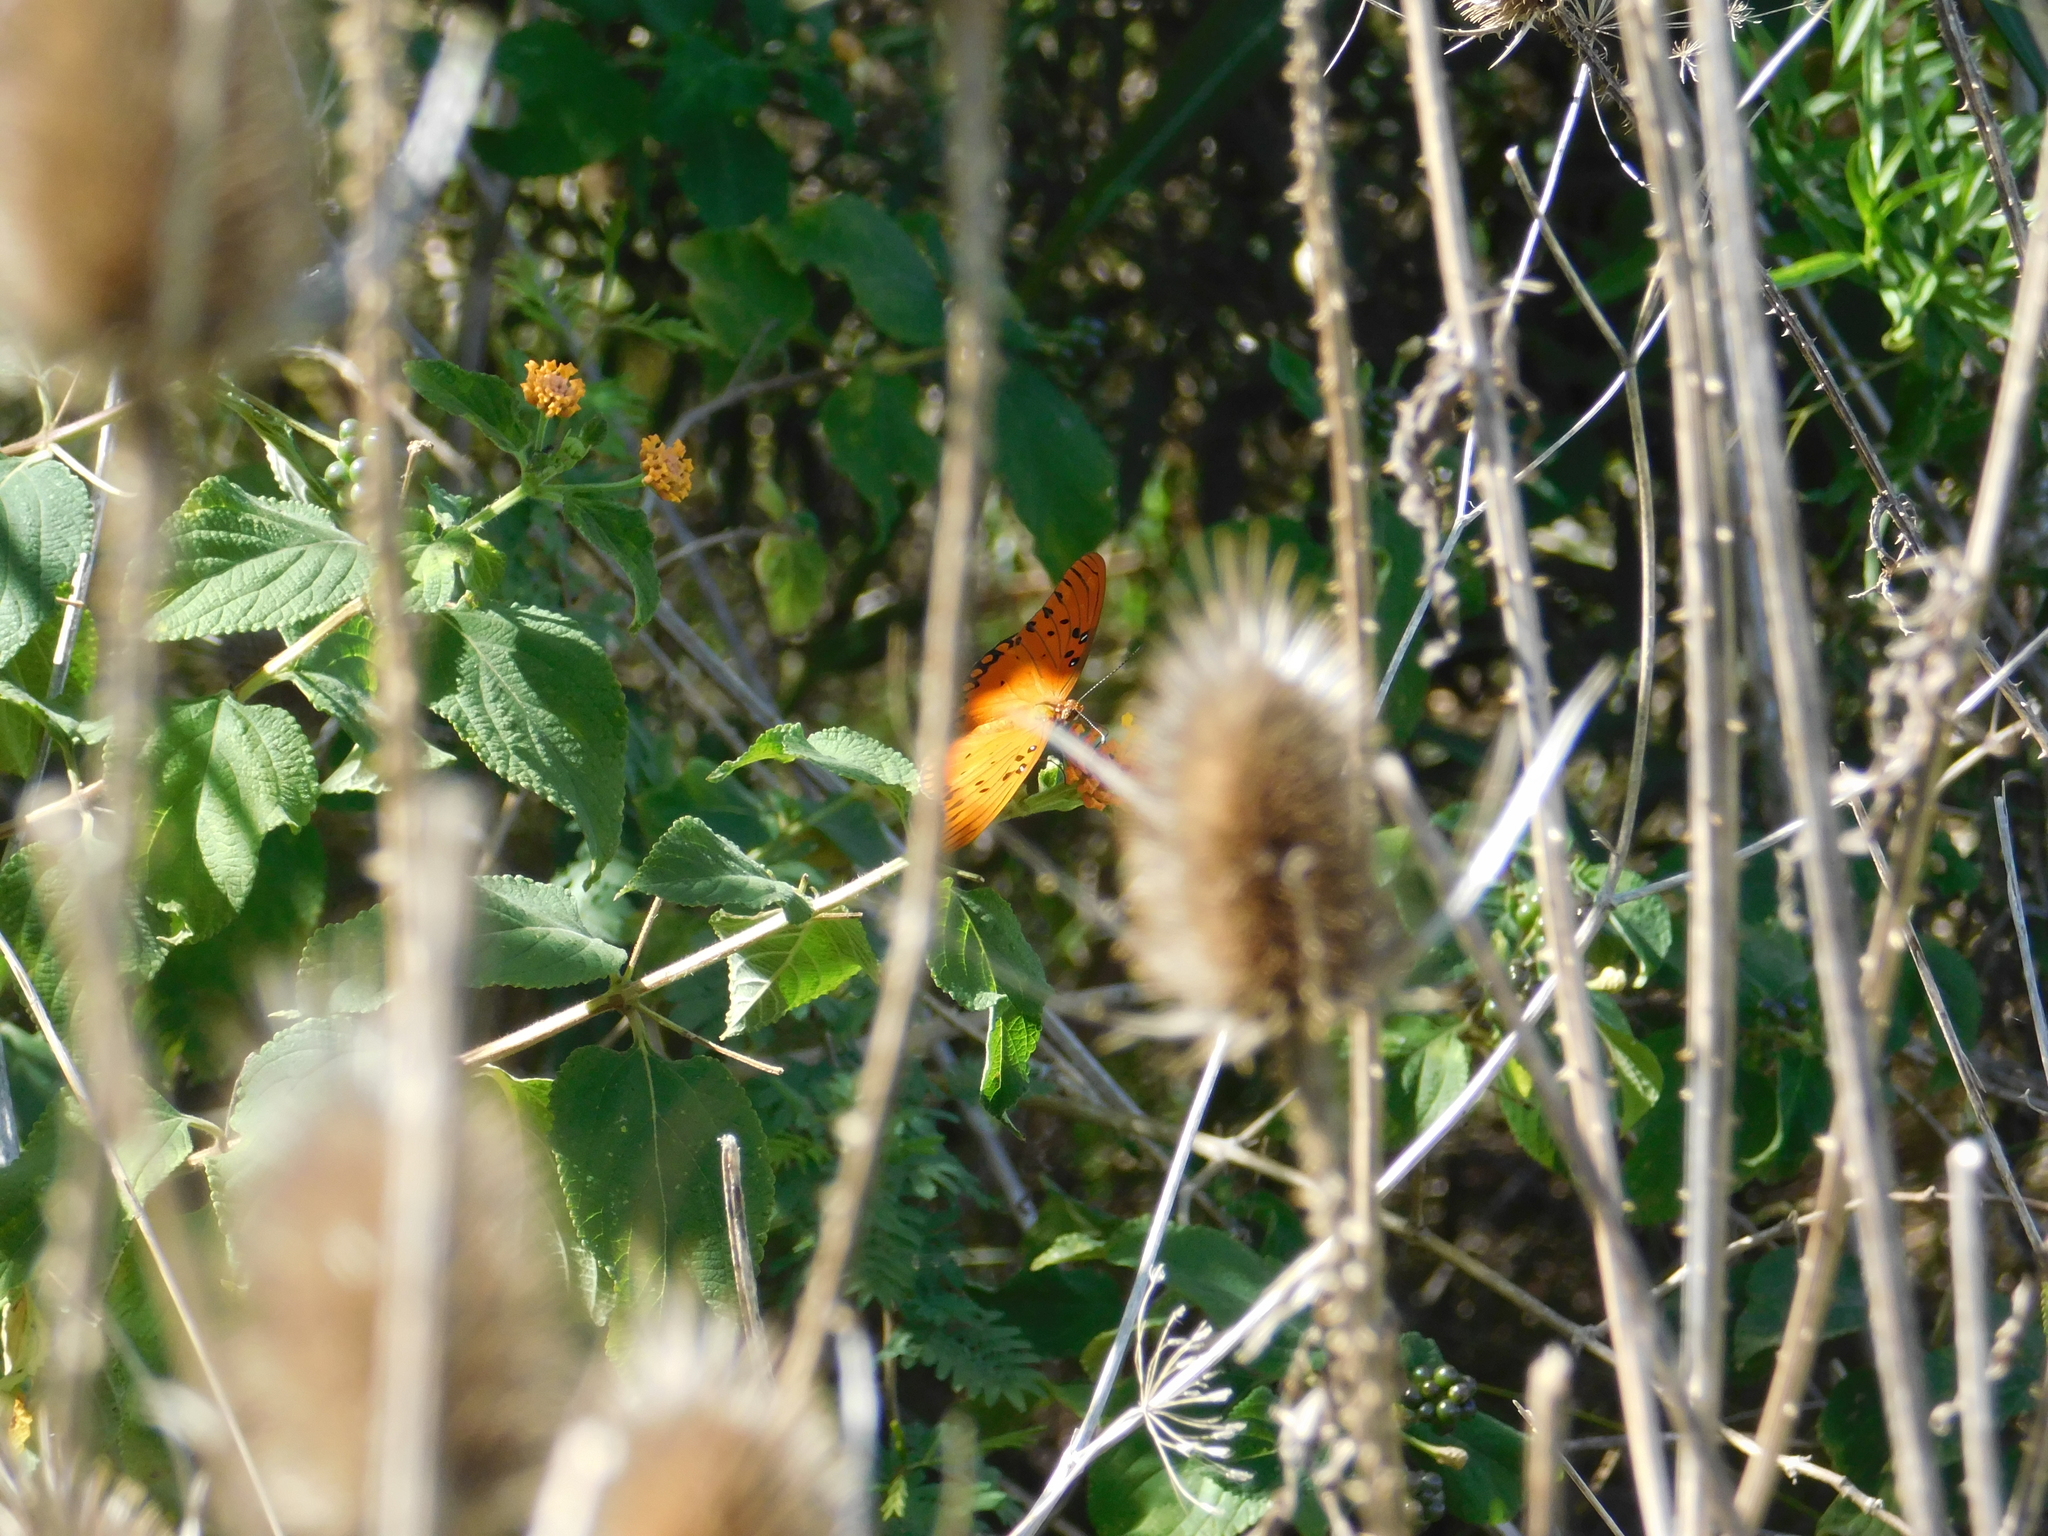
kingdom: Animalia
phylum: Arthropoda
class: Insecta
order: Lepidoptera
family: Nymphalidae
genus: Dione
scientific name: Dione vanillae
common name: Gulf fritillary
